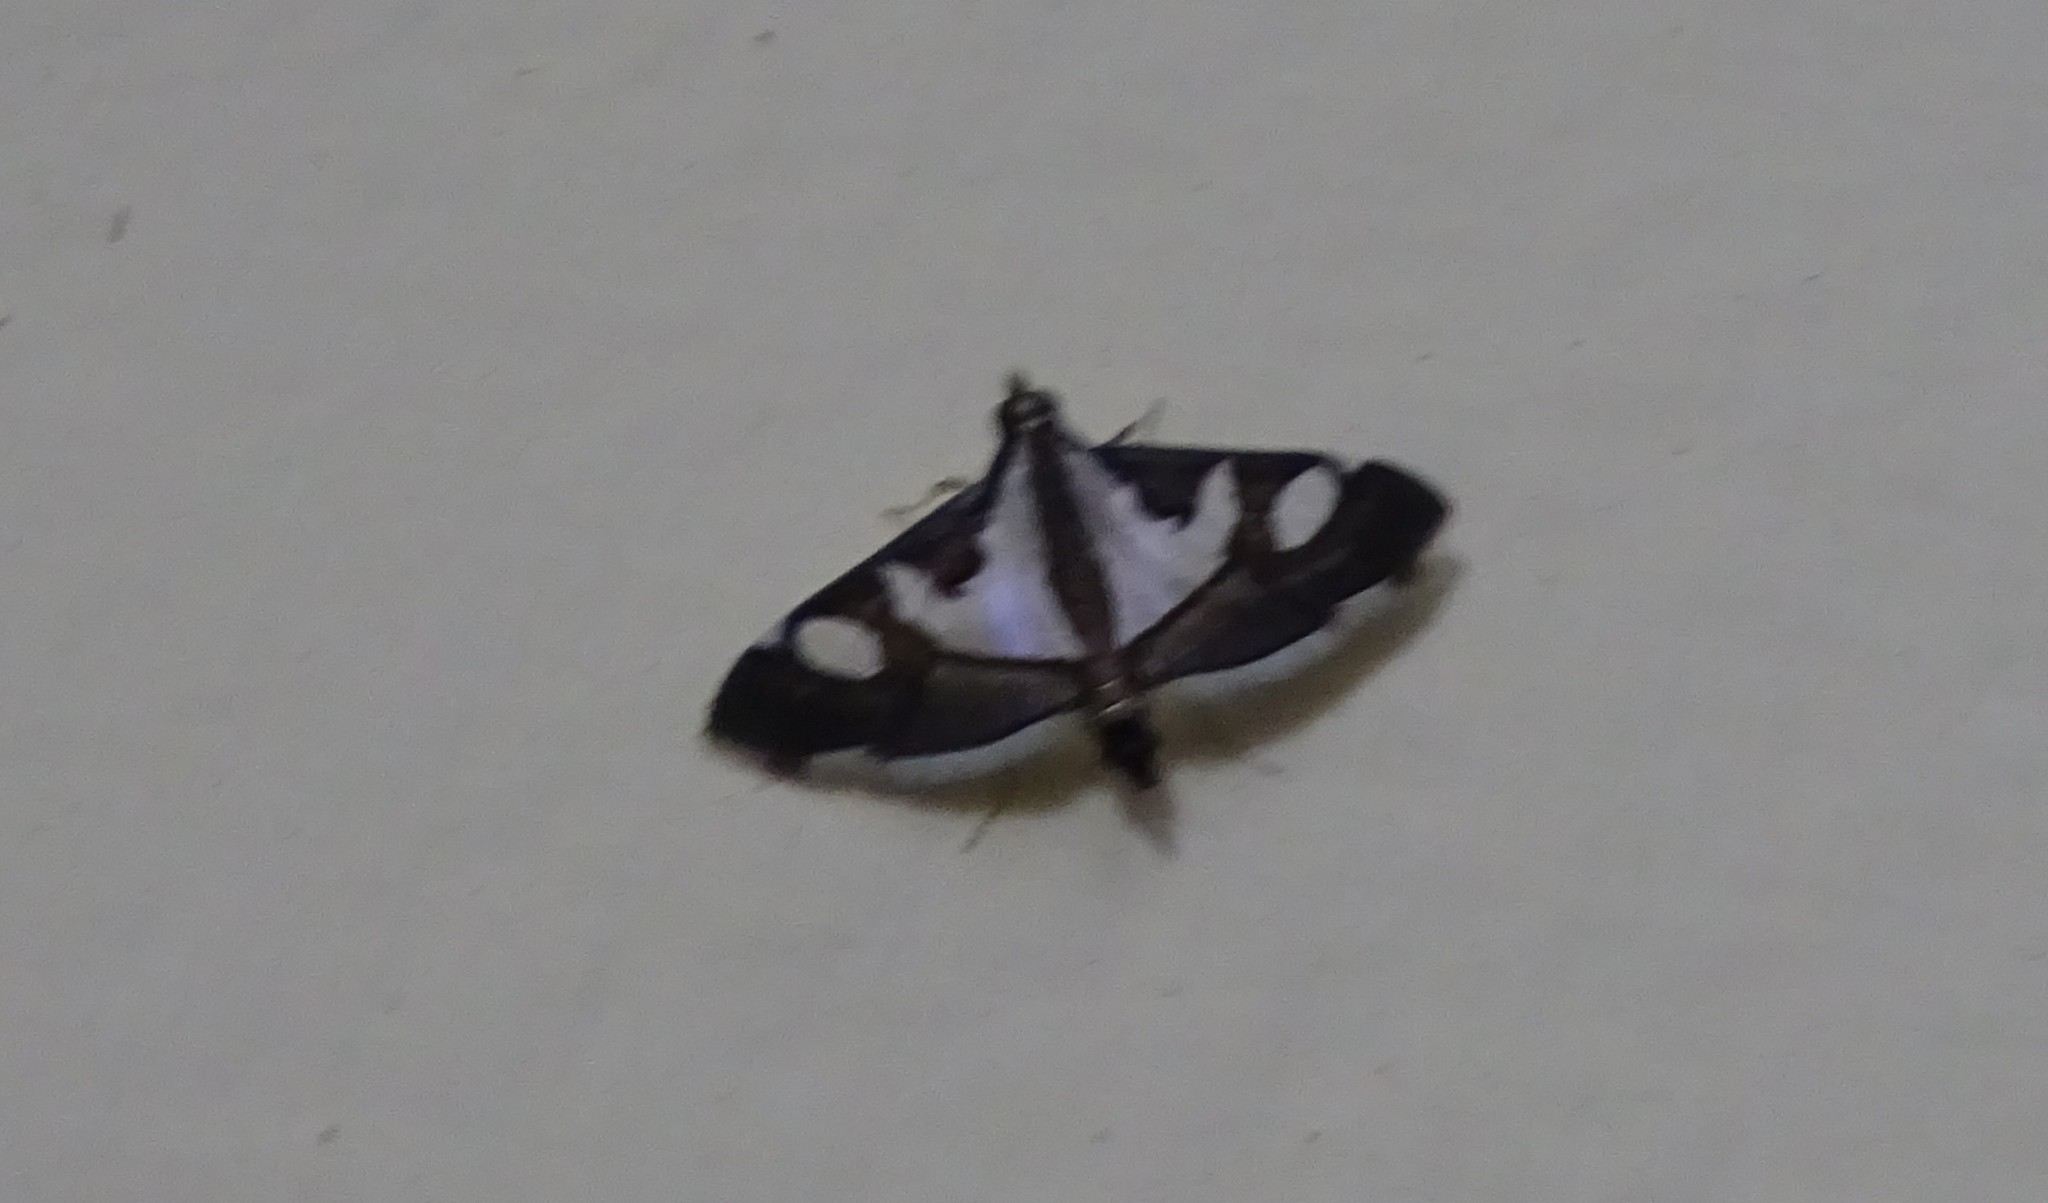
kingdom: Animalia
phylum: Arthropoda
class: Insecta
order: Lepidoptera
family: Crambidae
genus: Glyphodes
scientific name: Glyphodes bicolor
